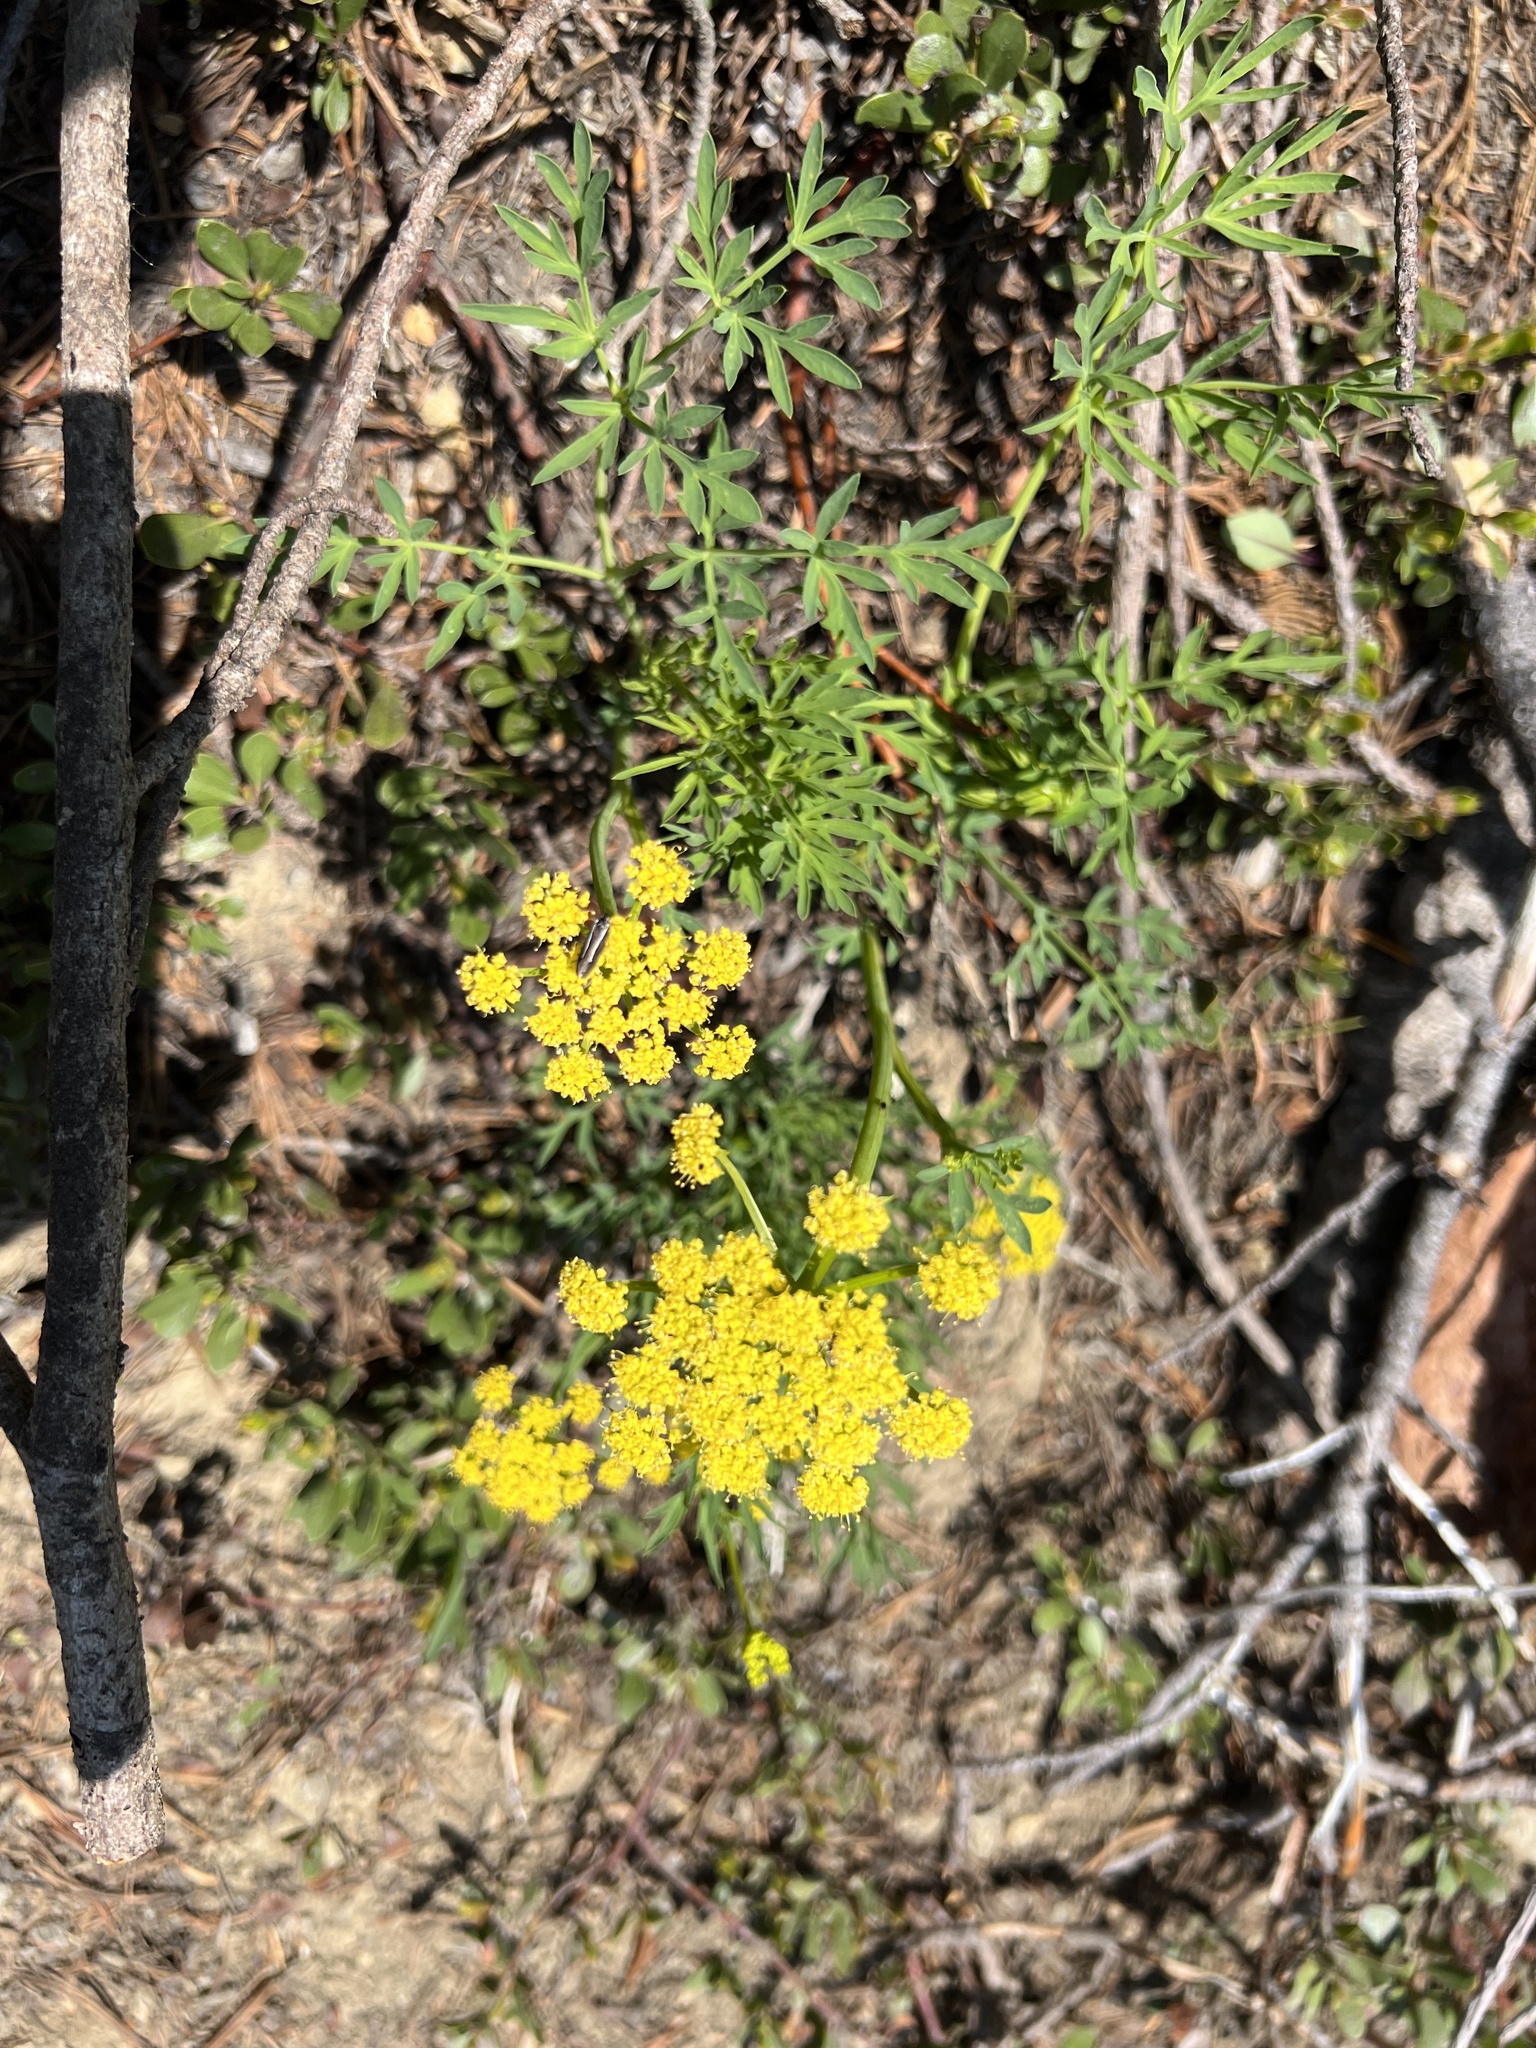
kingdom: Plantae
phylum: Tracheophyta
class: Magnoliopsida
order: Apiales
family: Apiaceae
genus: Lomatium
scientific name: Lomatium brandegeei
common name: Brandegee's desert-parsley
